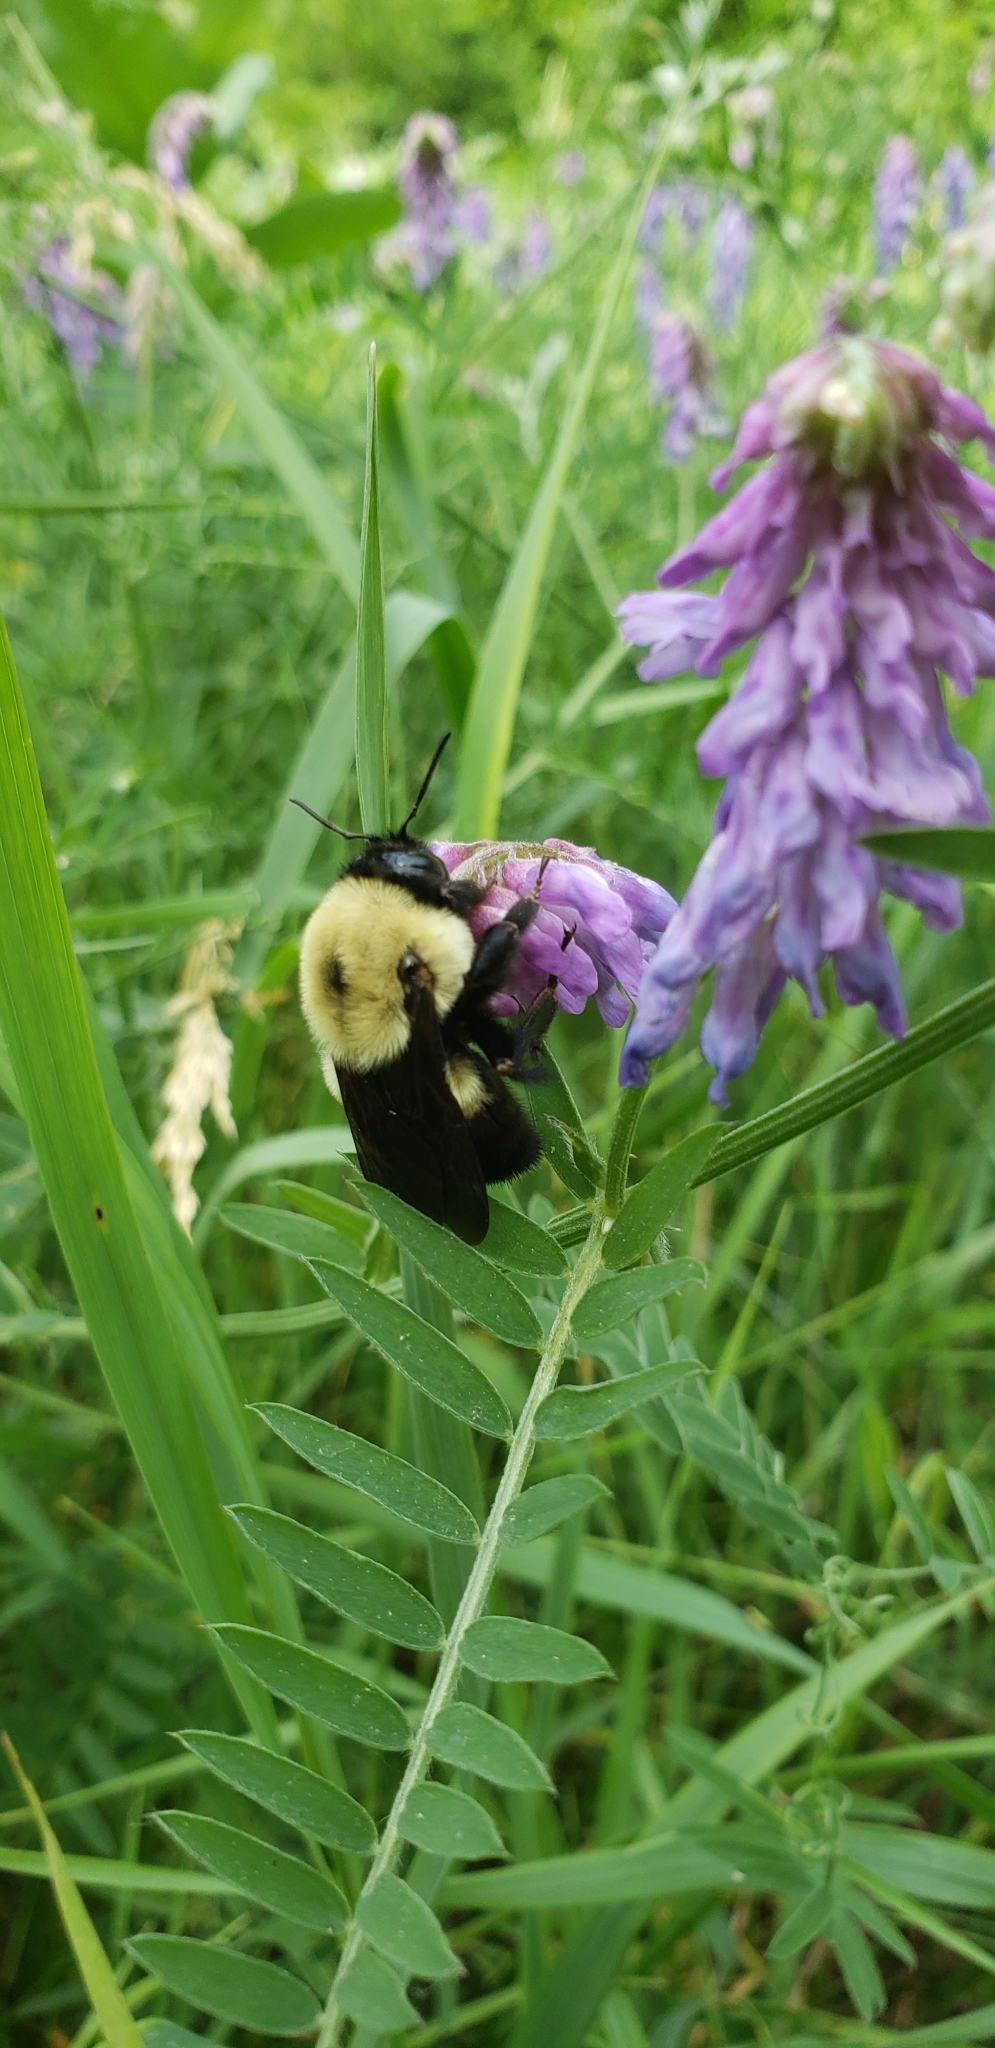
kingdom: Animalia
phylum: Arthropoda
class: Insecta
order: Hymenoptera
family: Apidae
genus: Bombus
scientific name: Bombus griseocollis
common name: Brown-belted bumble bee
